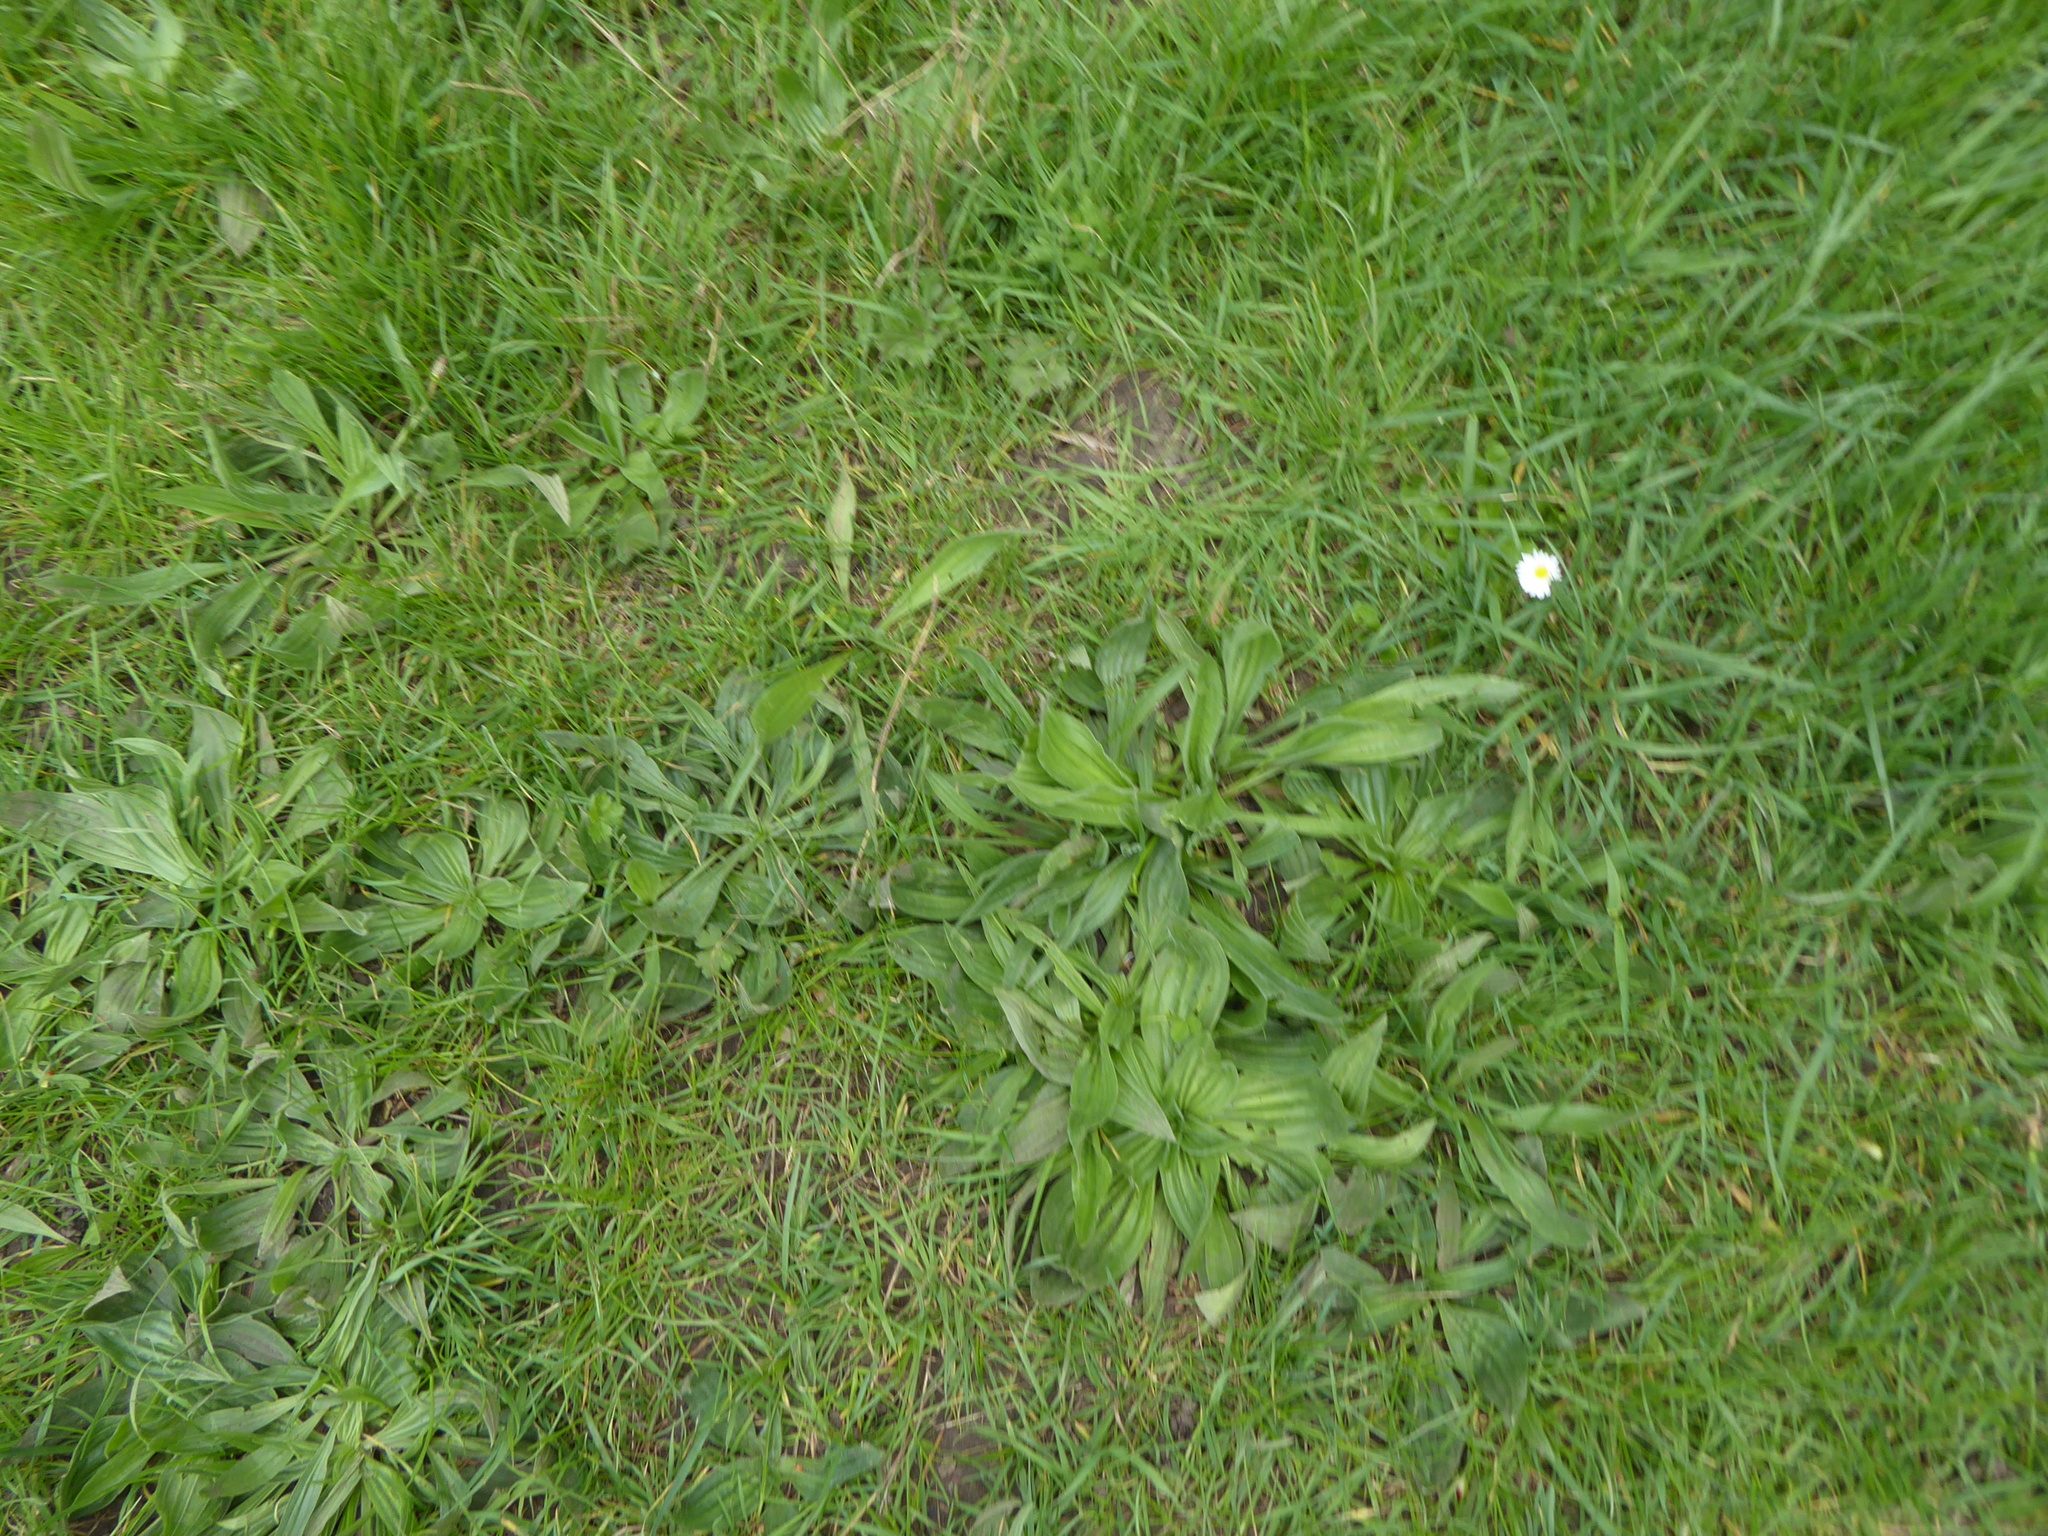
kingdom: Plantae
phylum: Tracheophyta
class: Magnoliopsida
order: Lamiales
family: Plantaginaceae
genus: Plantago
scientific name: Plantago lanceolata
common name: Ribwort plantain
